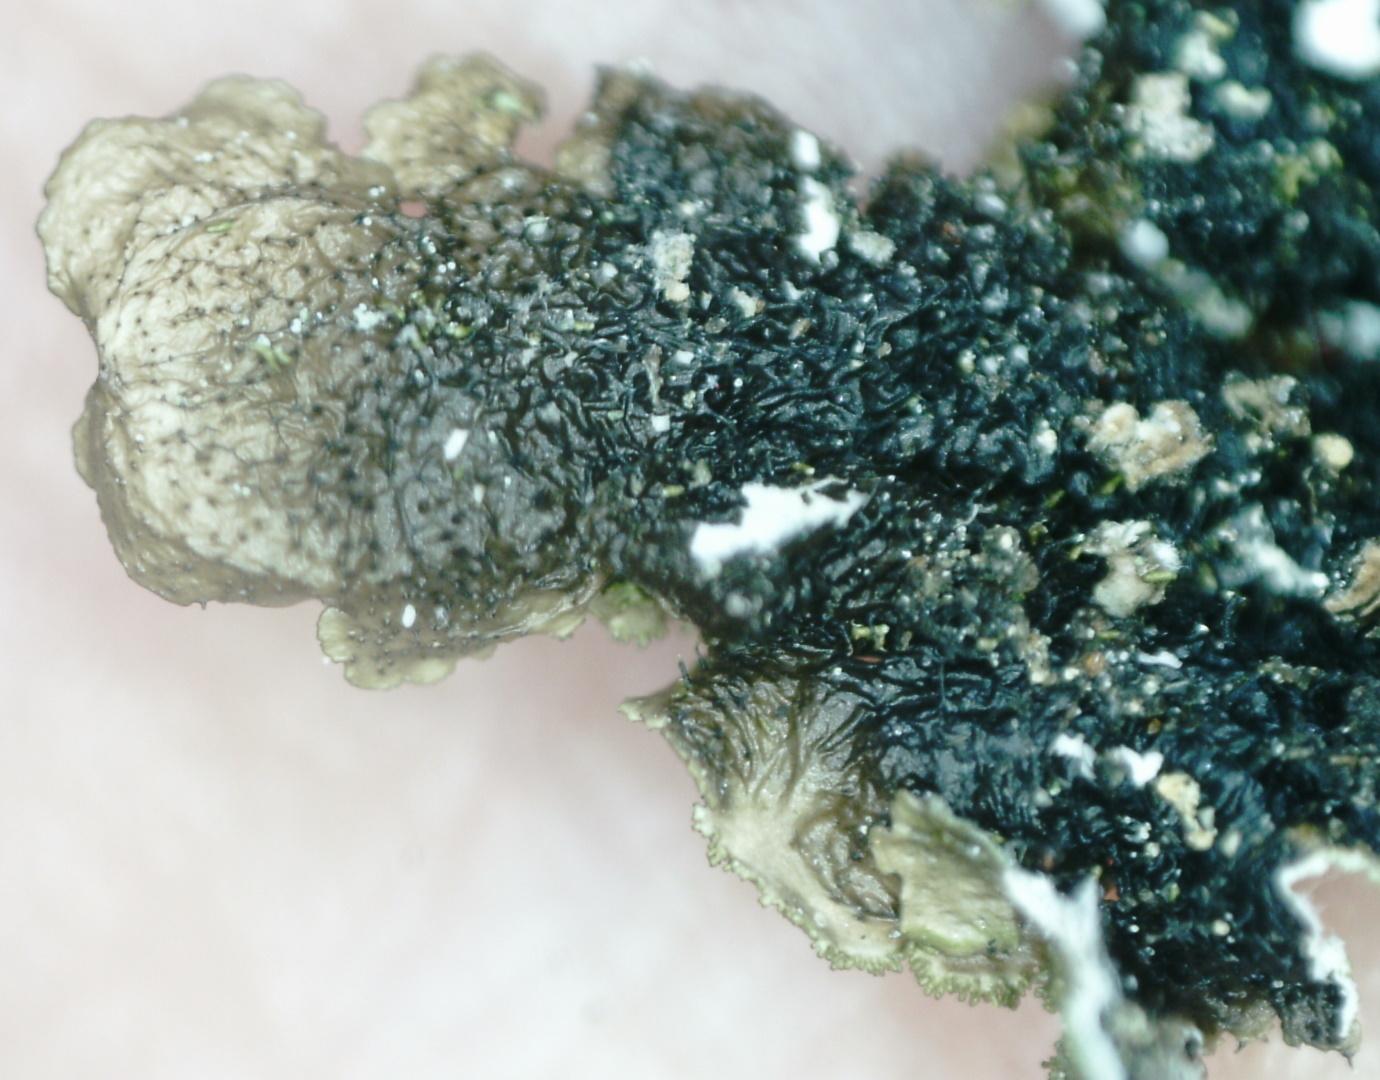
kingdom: Fungi
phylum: Ascomycota
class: Lecanoromycetes
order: Lecanorales
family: Parmeliaceae
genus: Melanelixia
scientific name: Melanelixia glabratula
